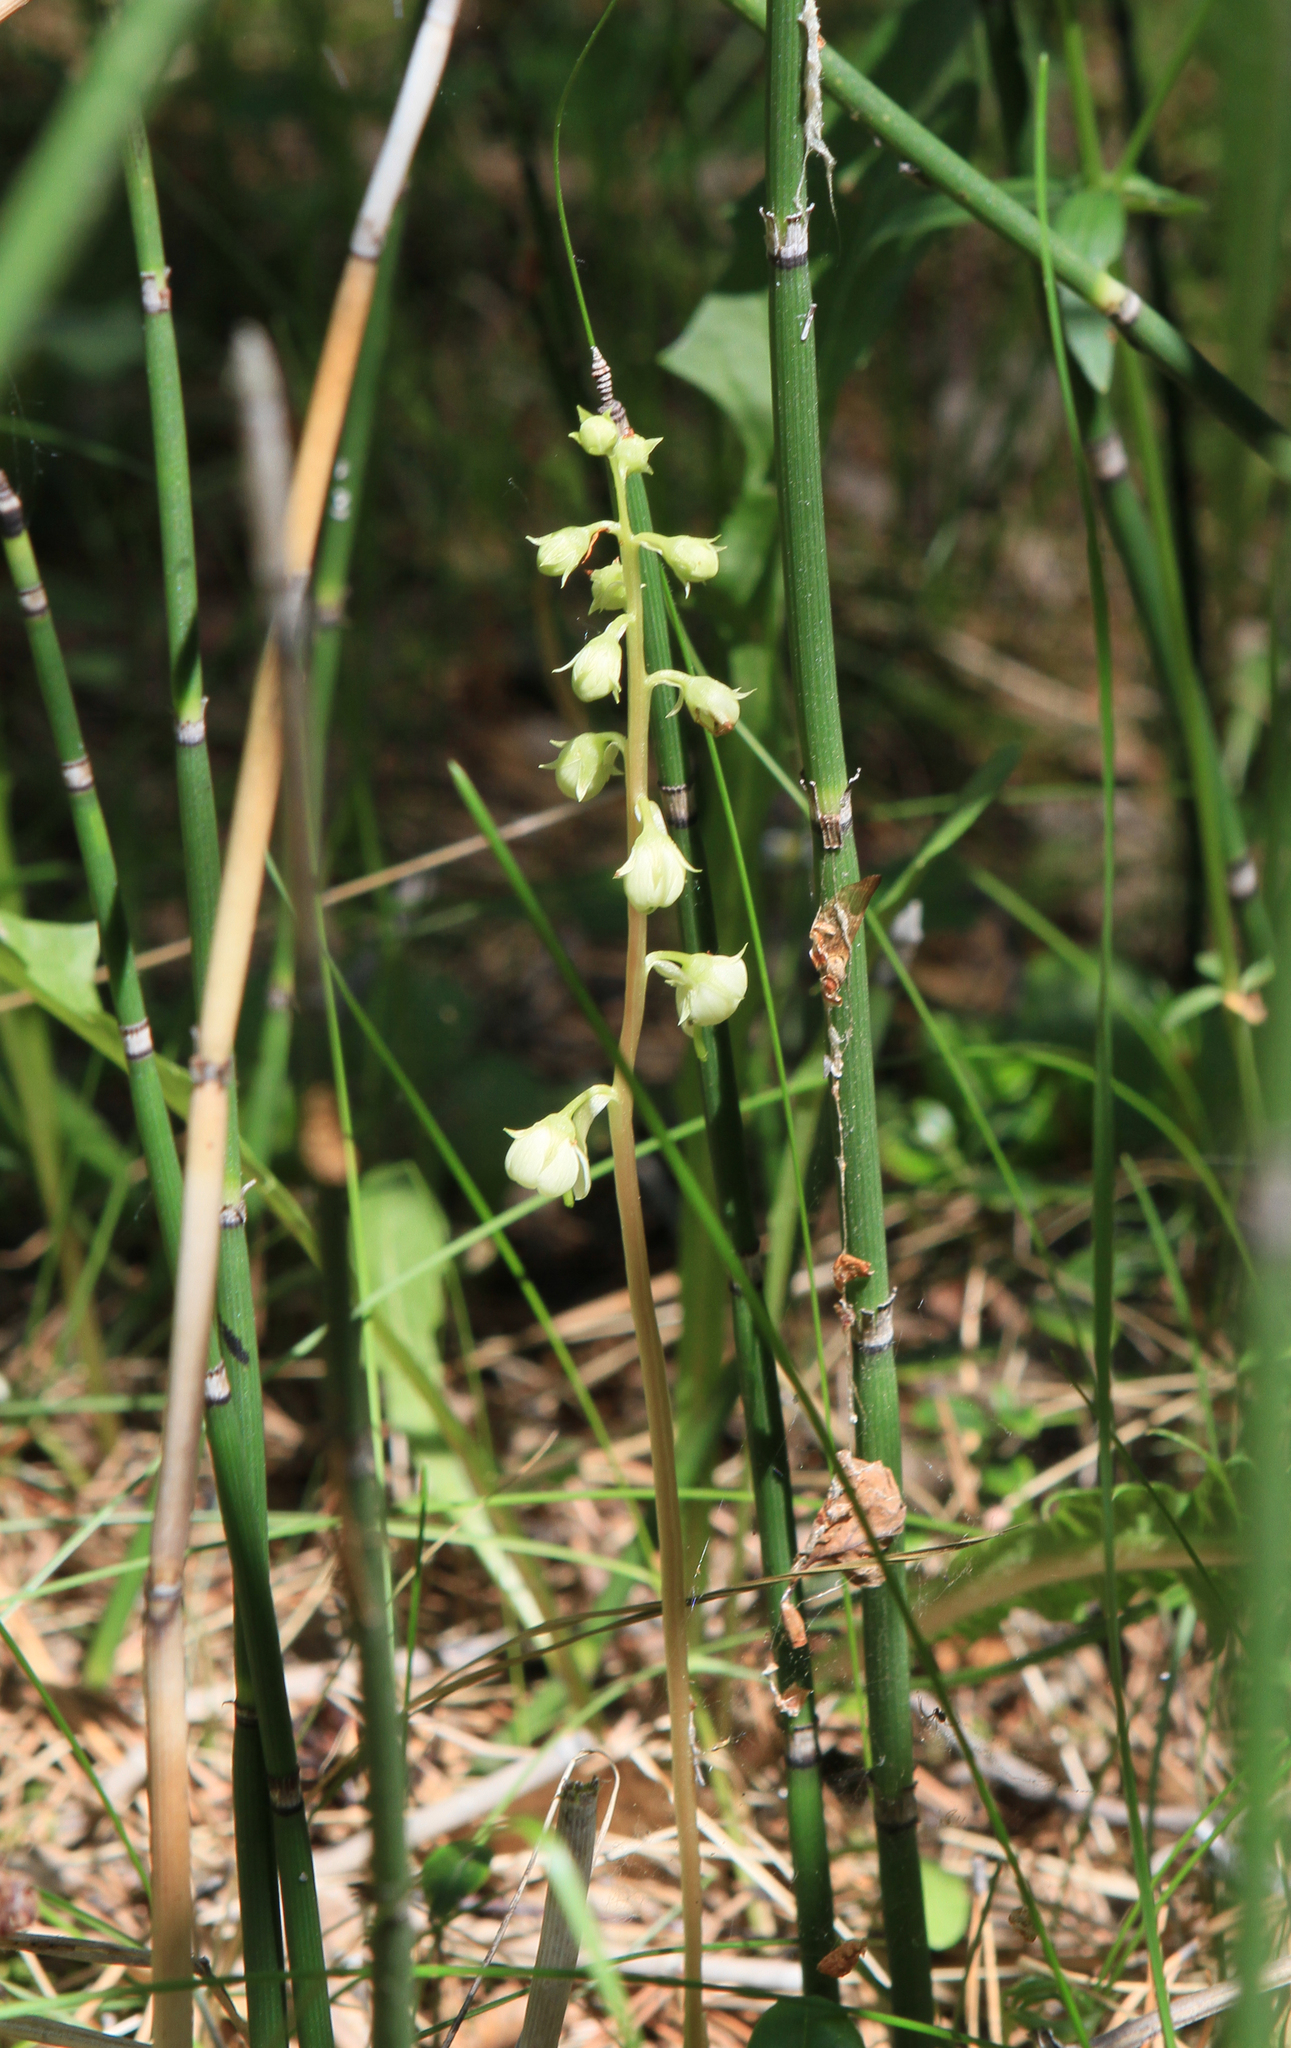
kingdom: Plantae
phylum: Tracheophyta
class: Magnoliopsida
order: Ericales
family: Ericaceae
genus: Pyrola
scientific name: Pyrola rotundifolia
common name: Round-leaved wintergreen
